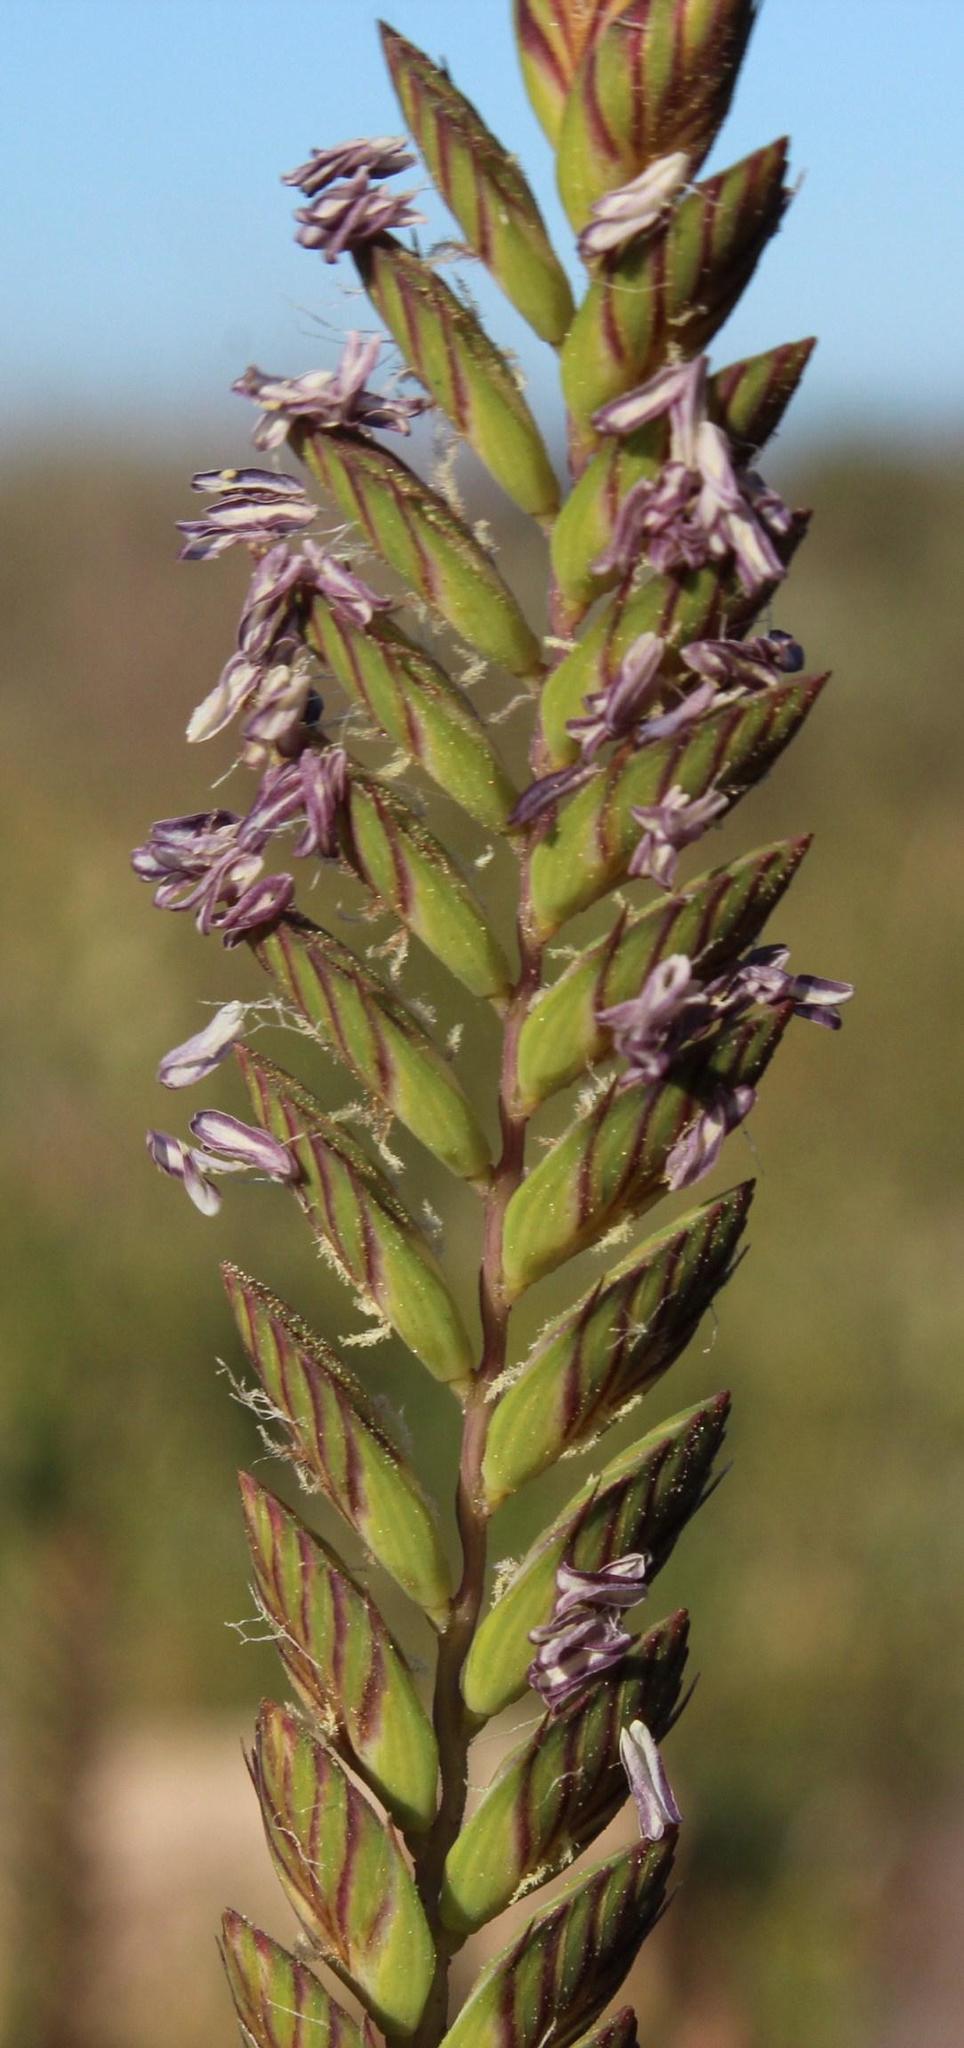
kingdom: Plantae
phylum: Tracheophyta
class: Liliopsida
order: Poales
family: Poaceae
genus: Tribolium
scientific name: Tribolium uniolae
